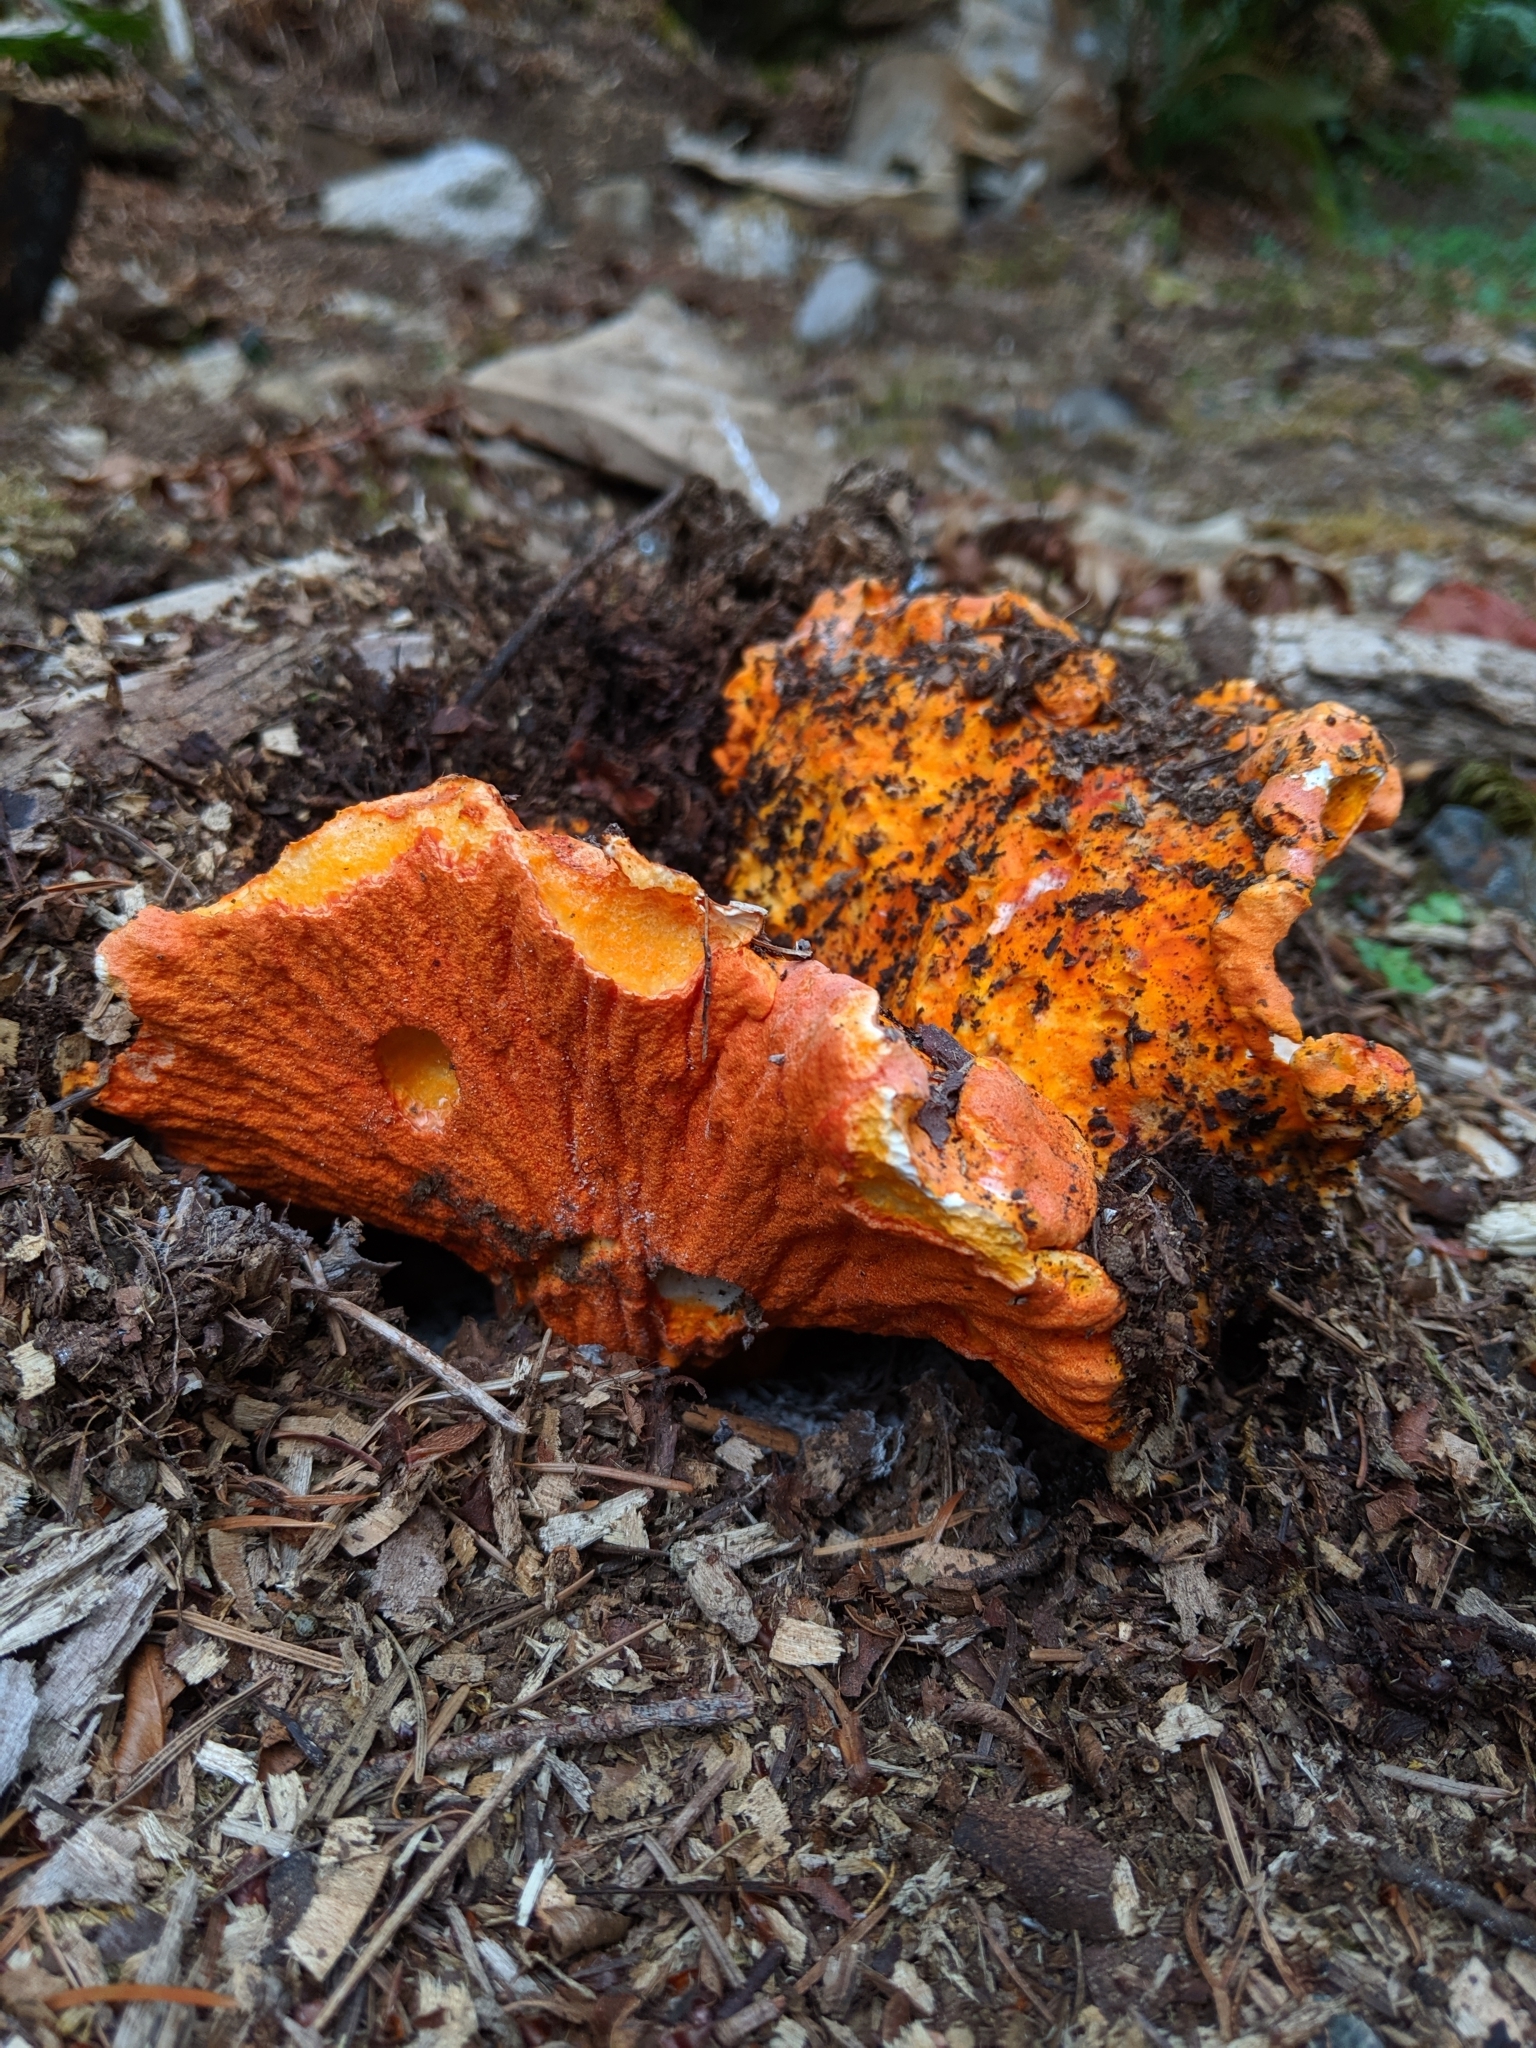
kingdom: Fungi
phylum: Ascomycota
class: Sordariomycetes
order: Hypocreales
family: Hypocreaceae
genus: Hypomyces
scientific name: Hypomyces lactifluorum
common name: Lobster mushroom
